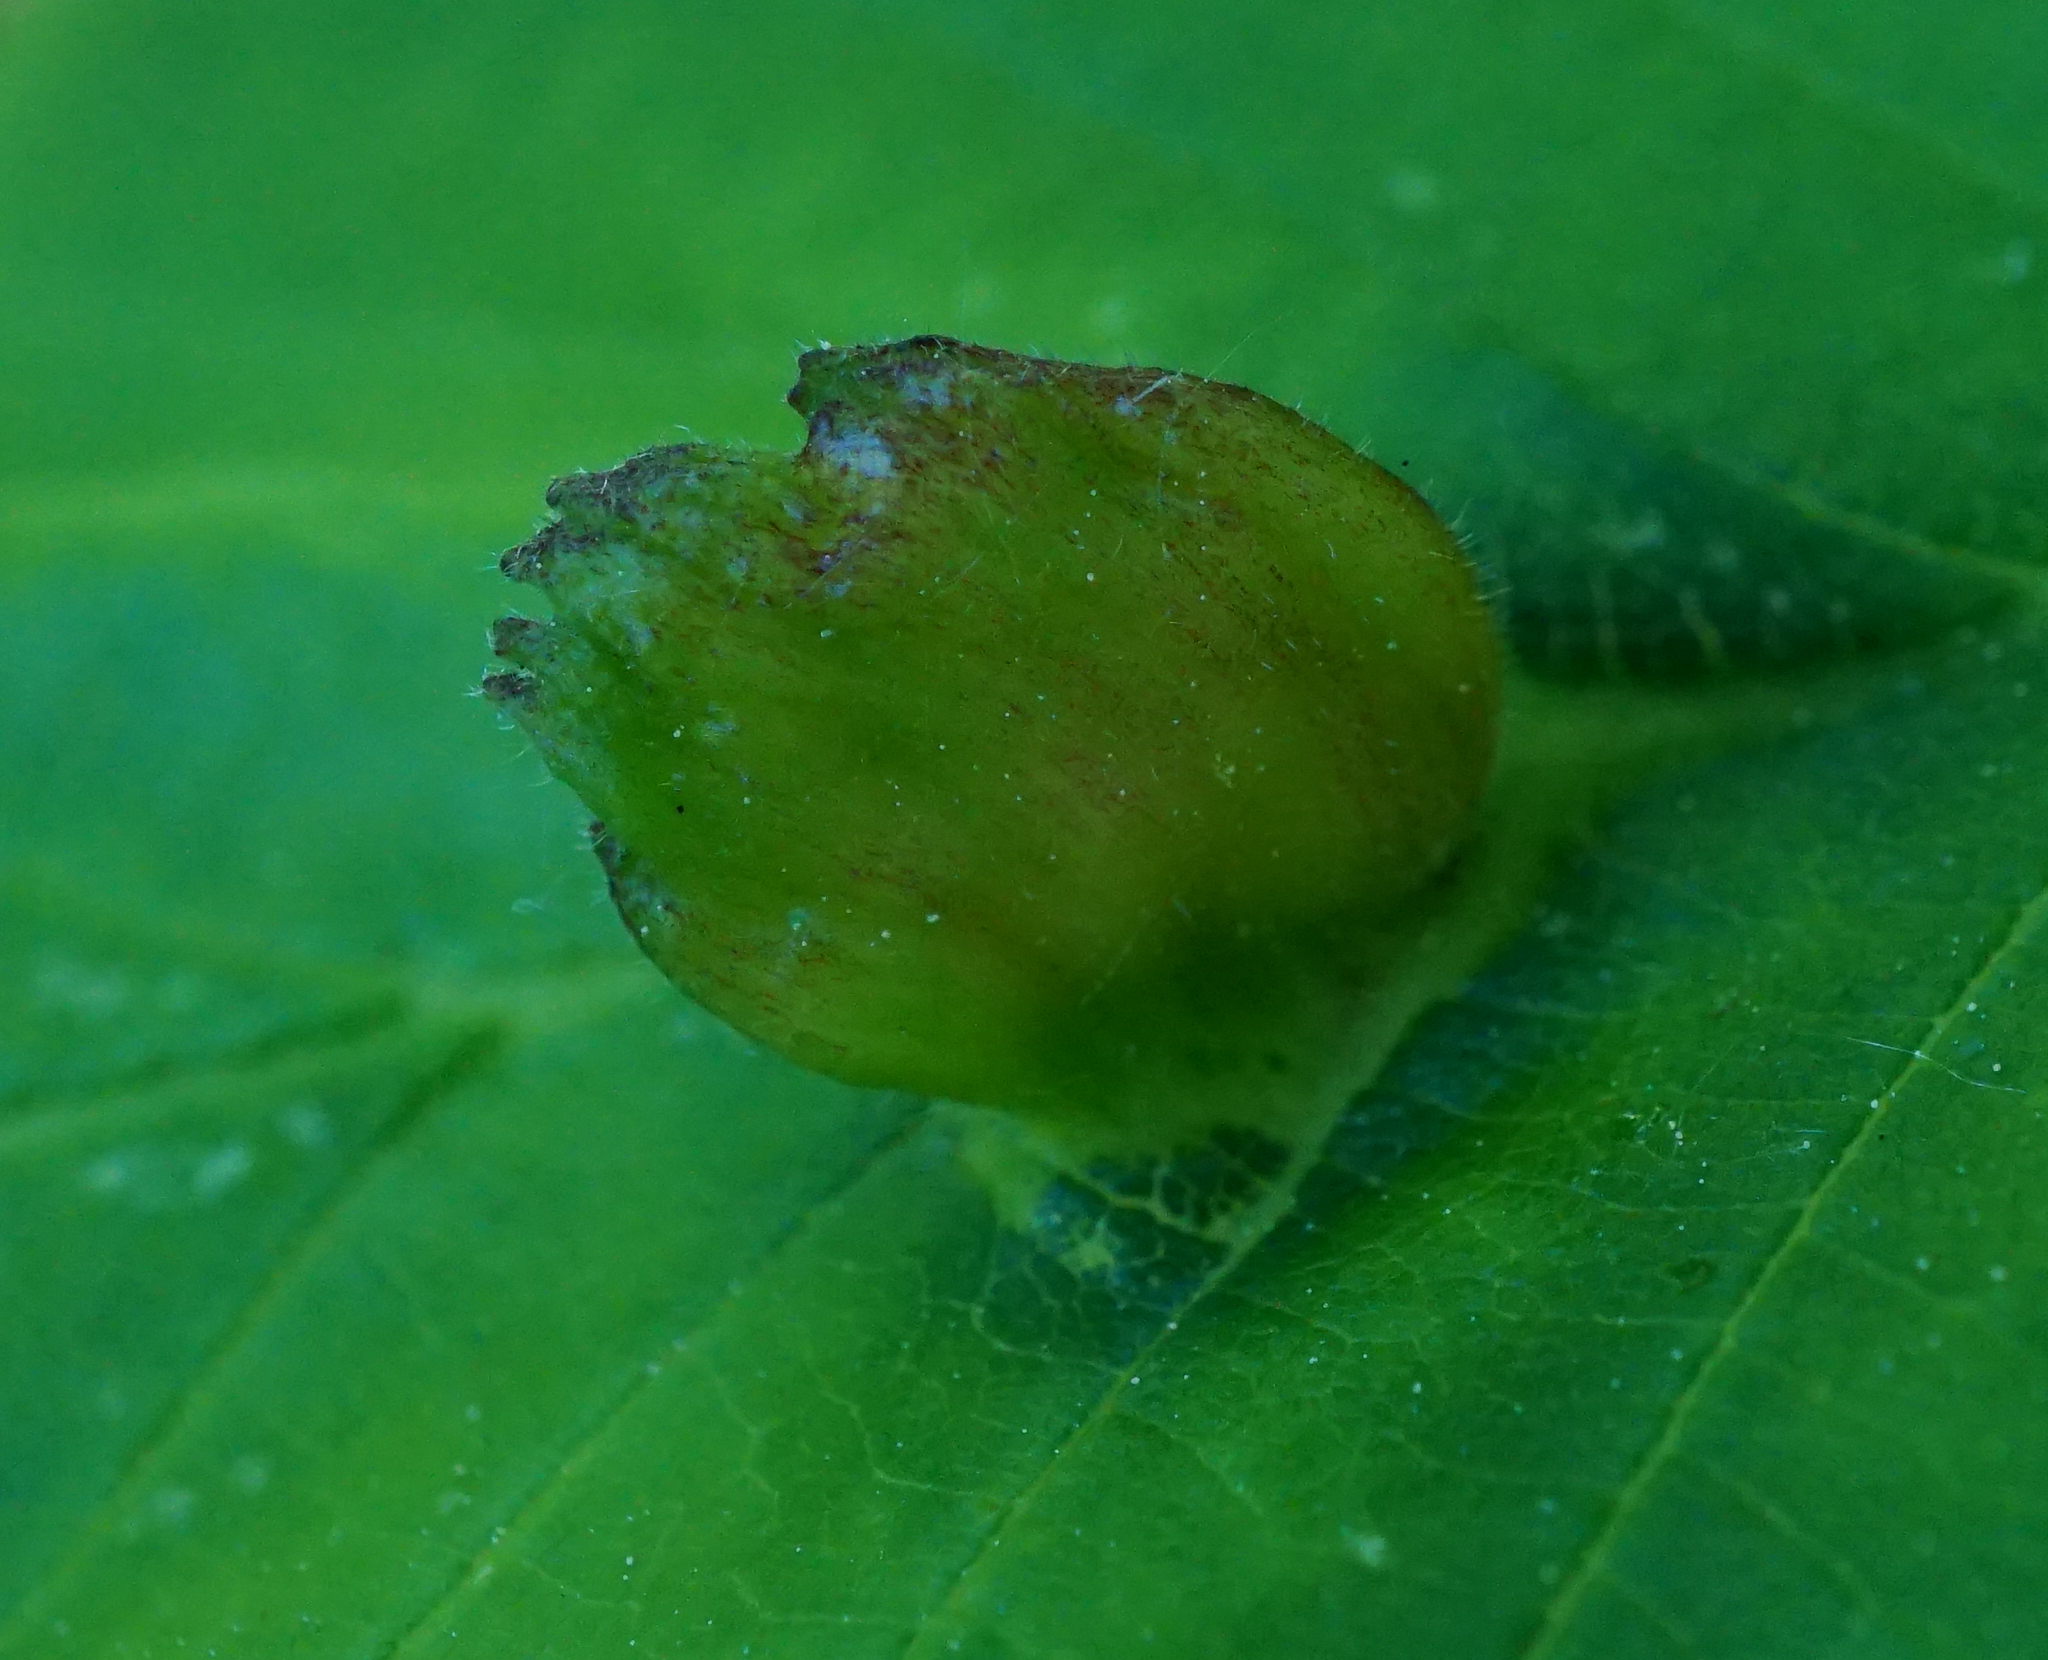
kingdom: Animalia
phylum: Arthropoda
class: Insecta
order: Hemiptera
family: Aphididae
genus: Colopha
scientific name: Colopha compressa
